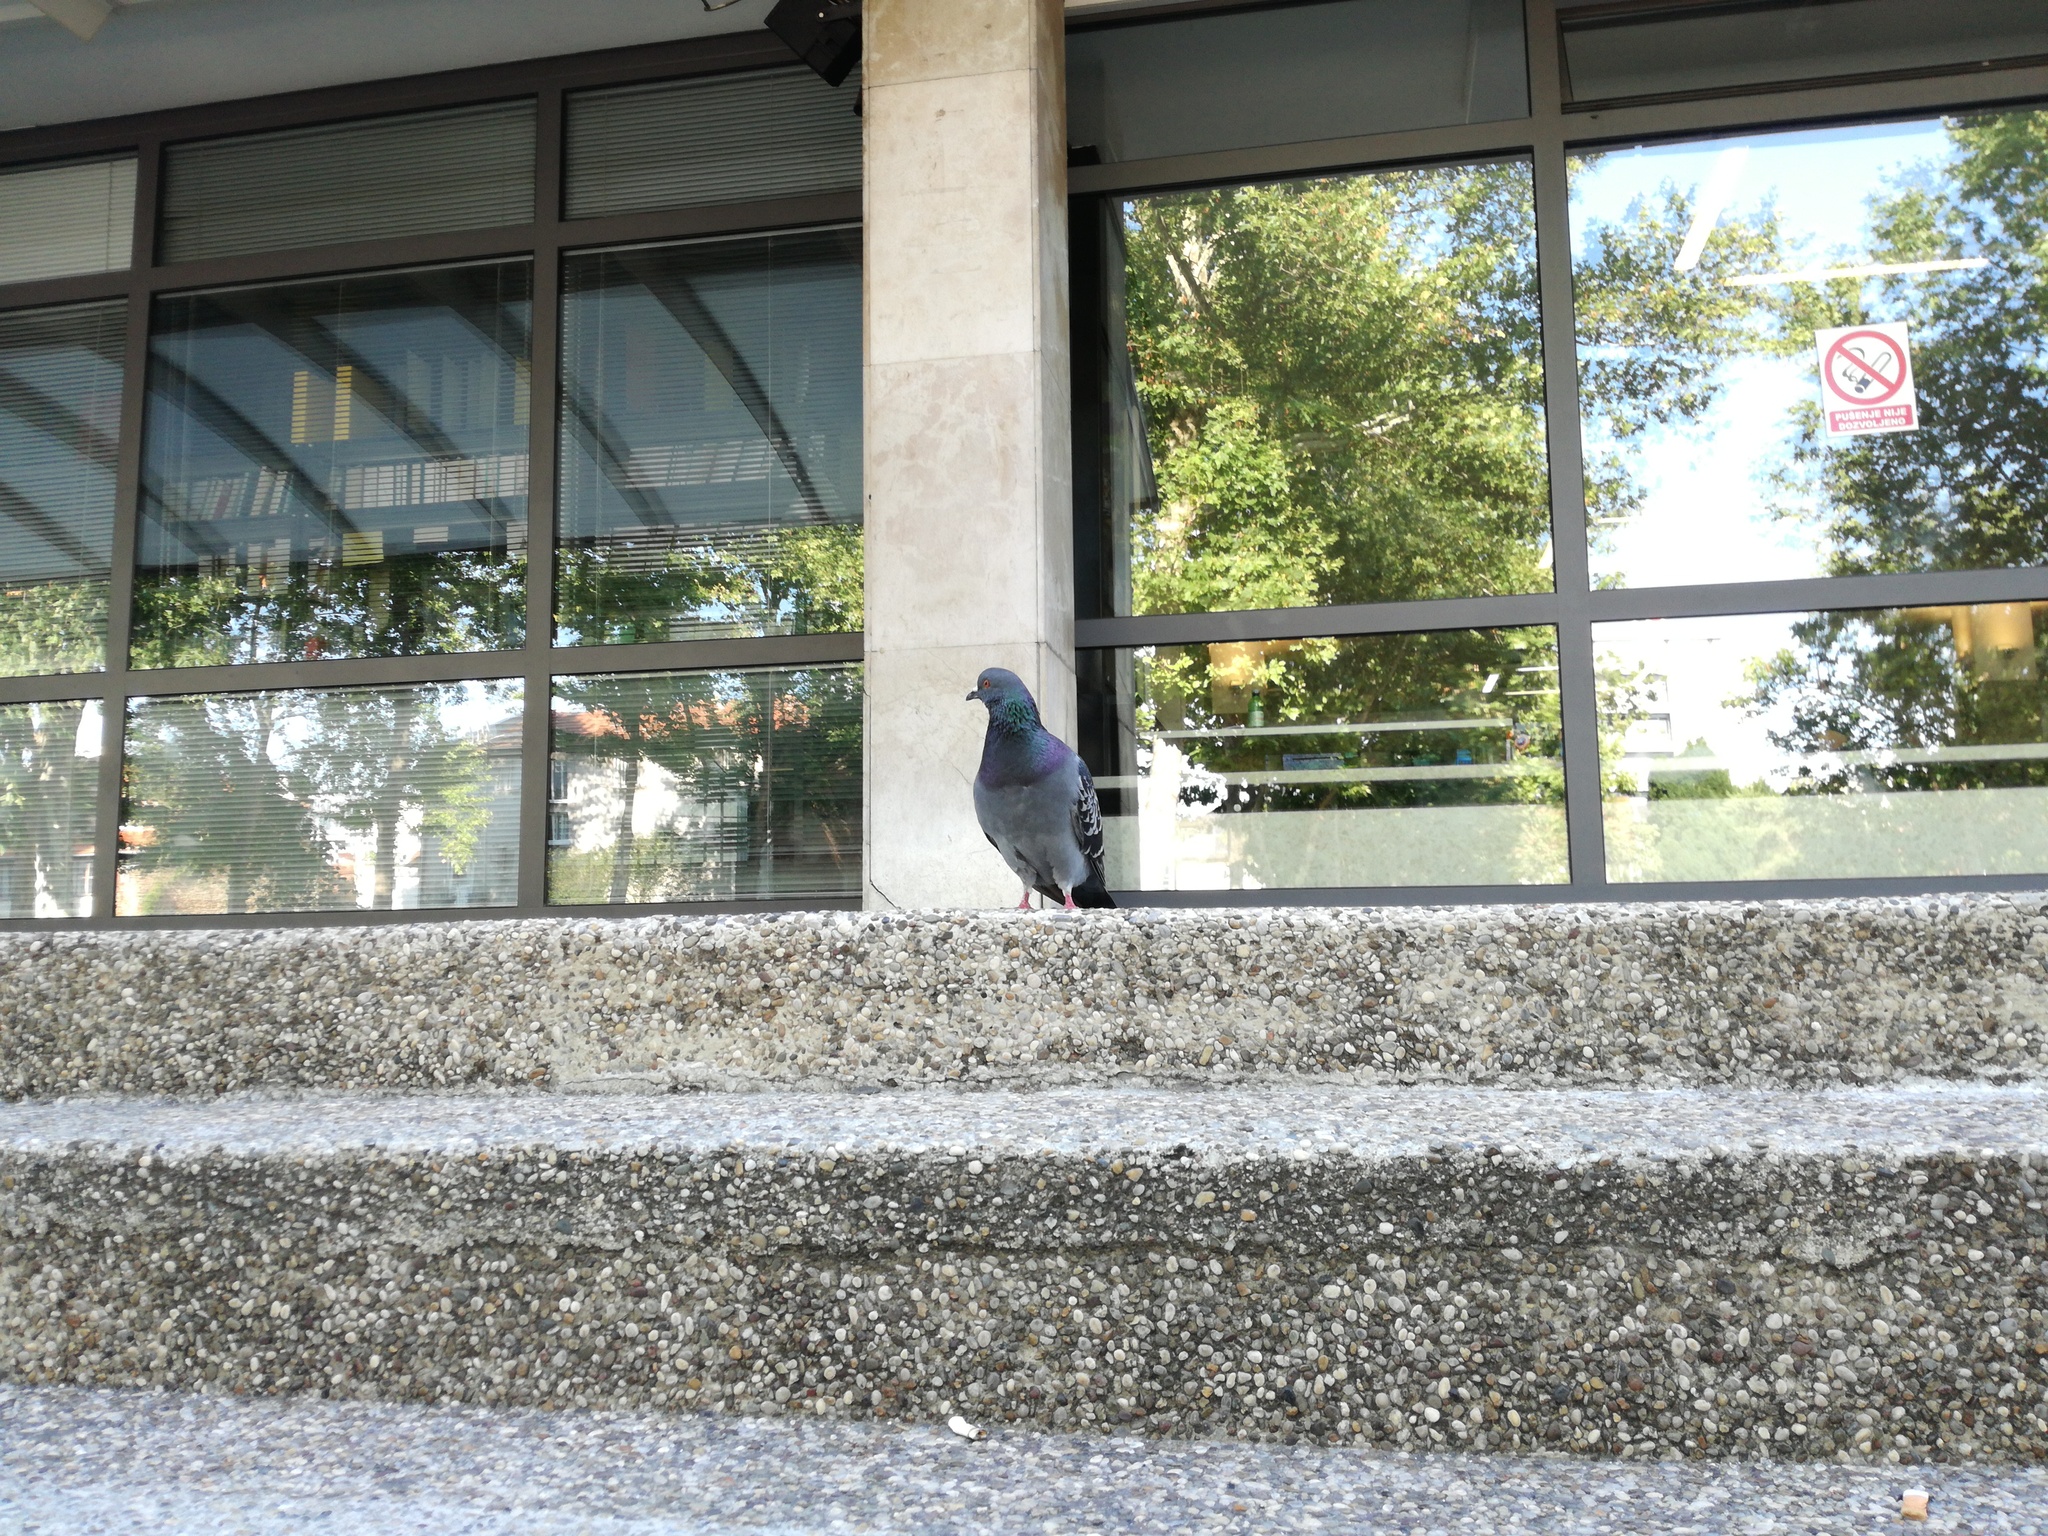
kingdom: Animalia
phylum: Chordata
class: Aves
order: Columbiformes
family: Columbidae
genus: Columba
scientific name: Columba livia
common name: Rock pigeon
